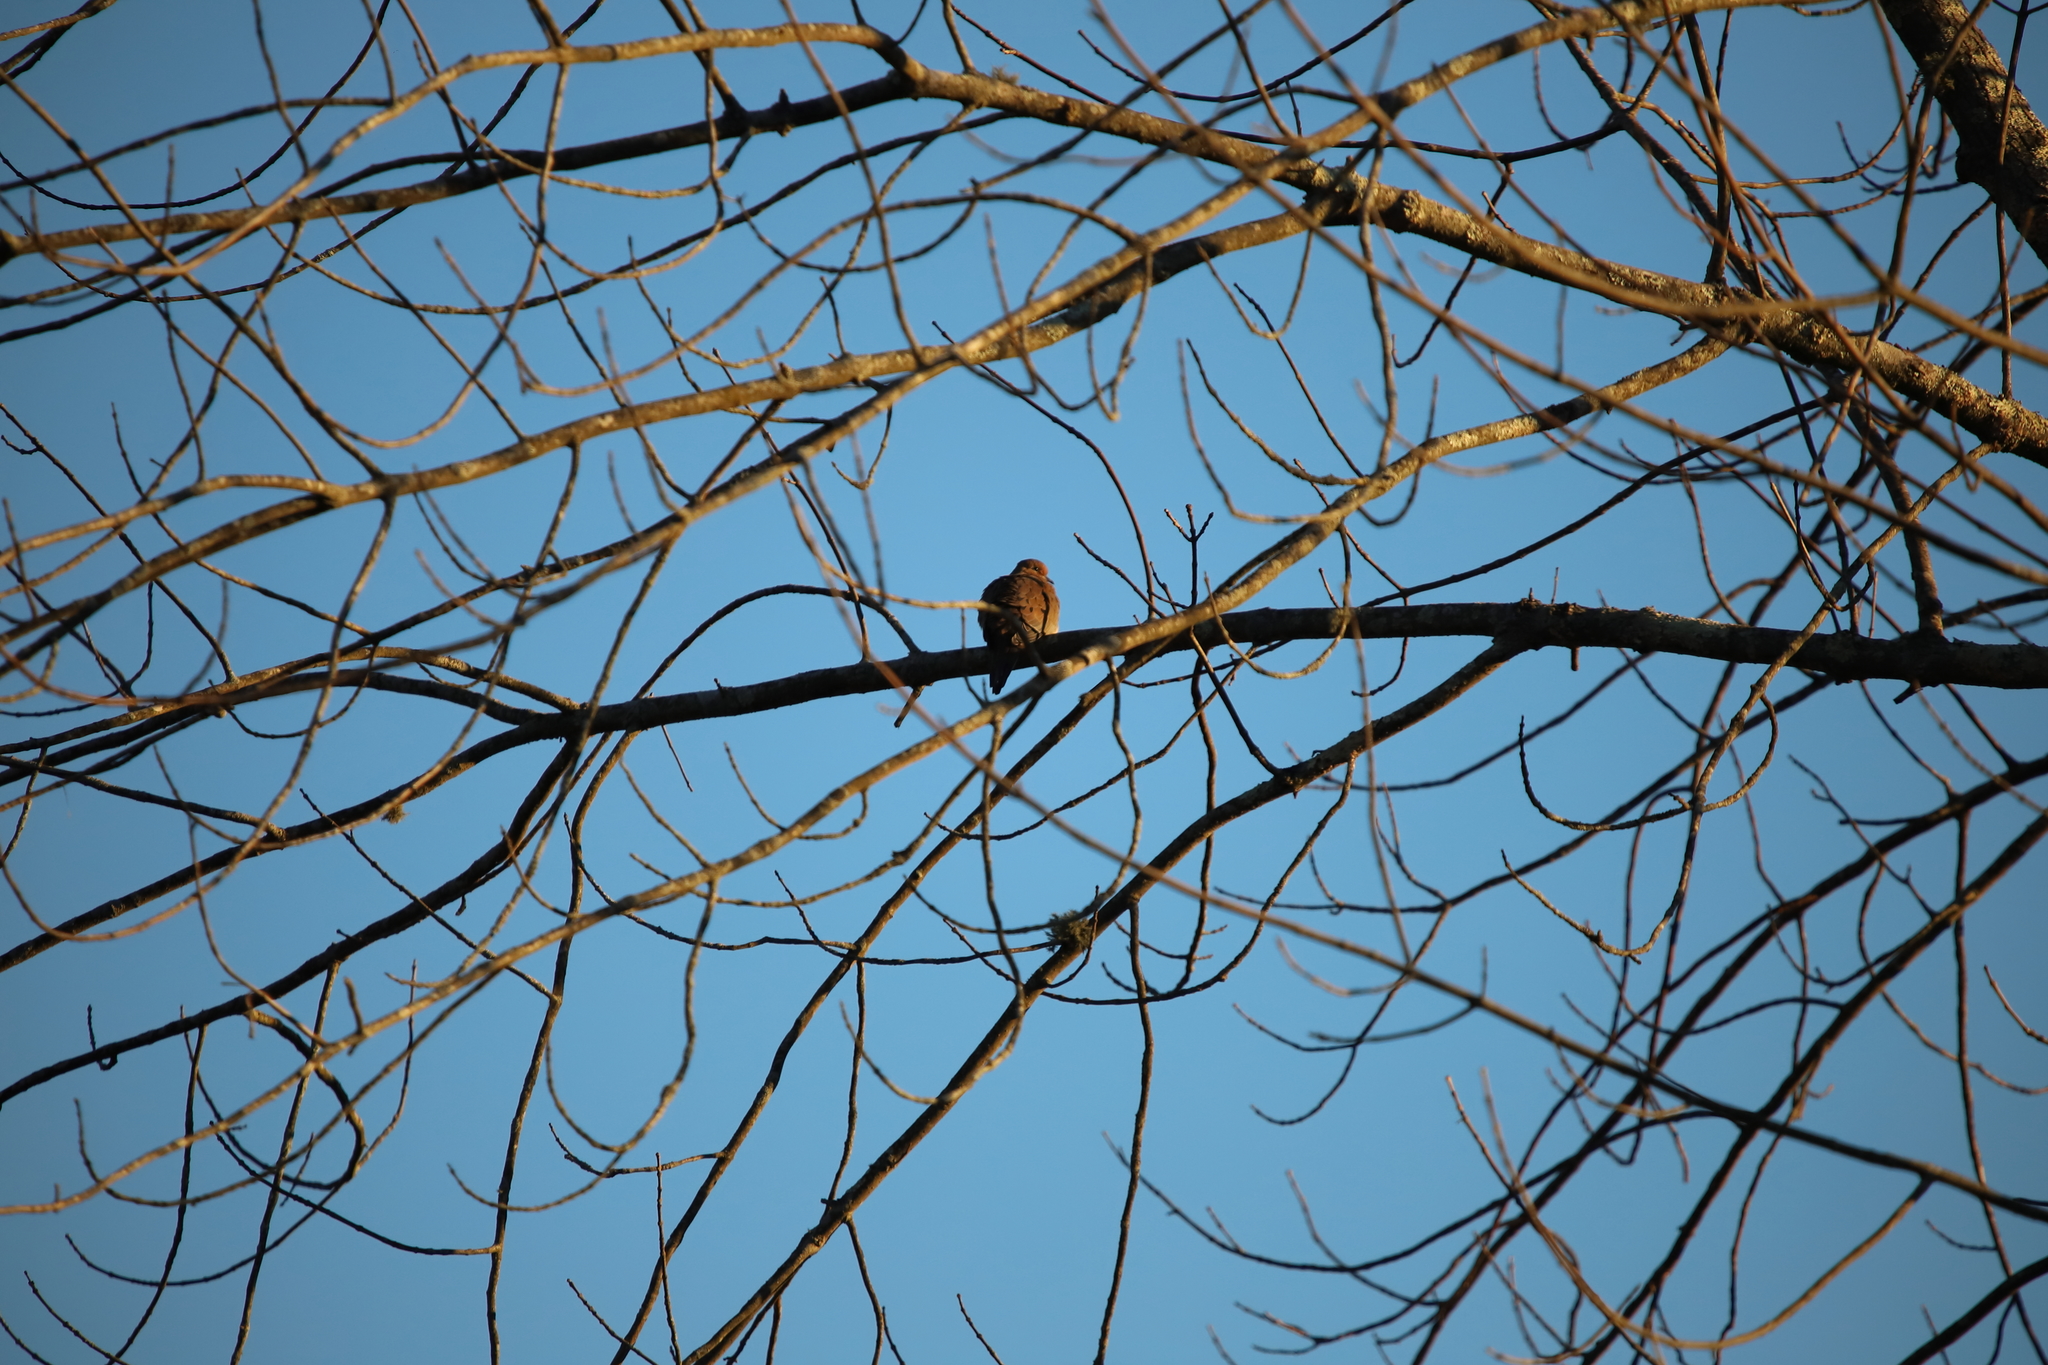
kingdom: Animalia
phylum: Chordata
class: Aves
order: Columbiformes
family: Columbidae
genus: Zenaida
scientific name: Zenaida macroura
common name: Mourning dove
